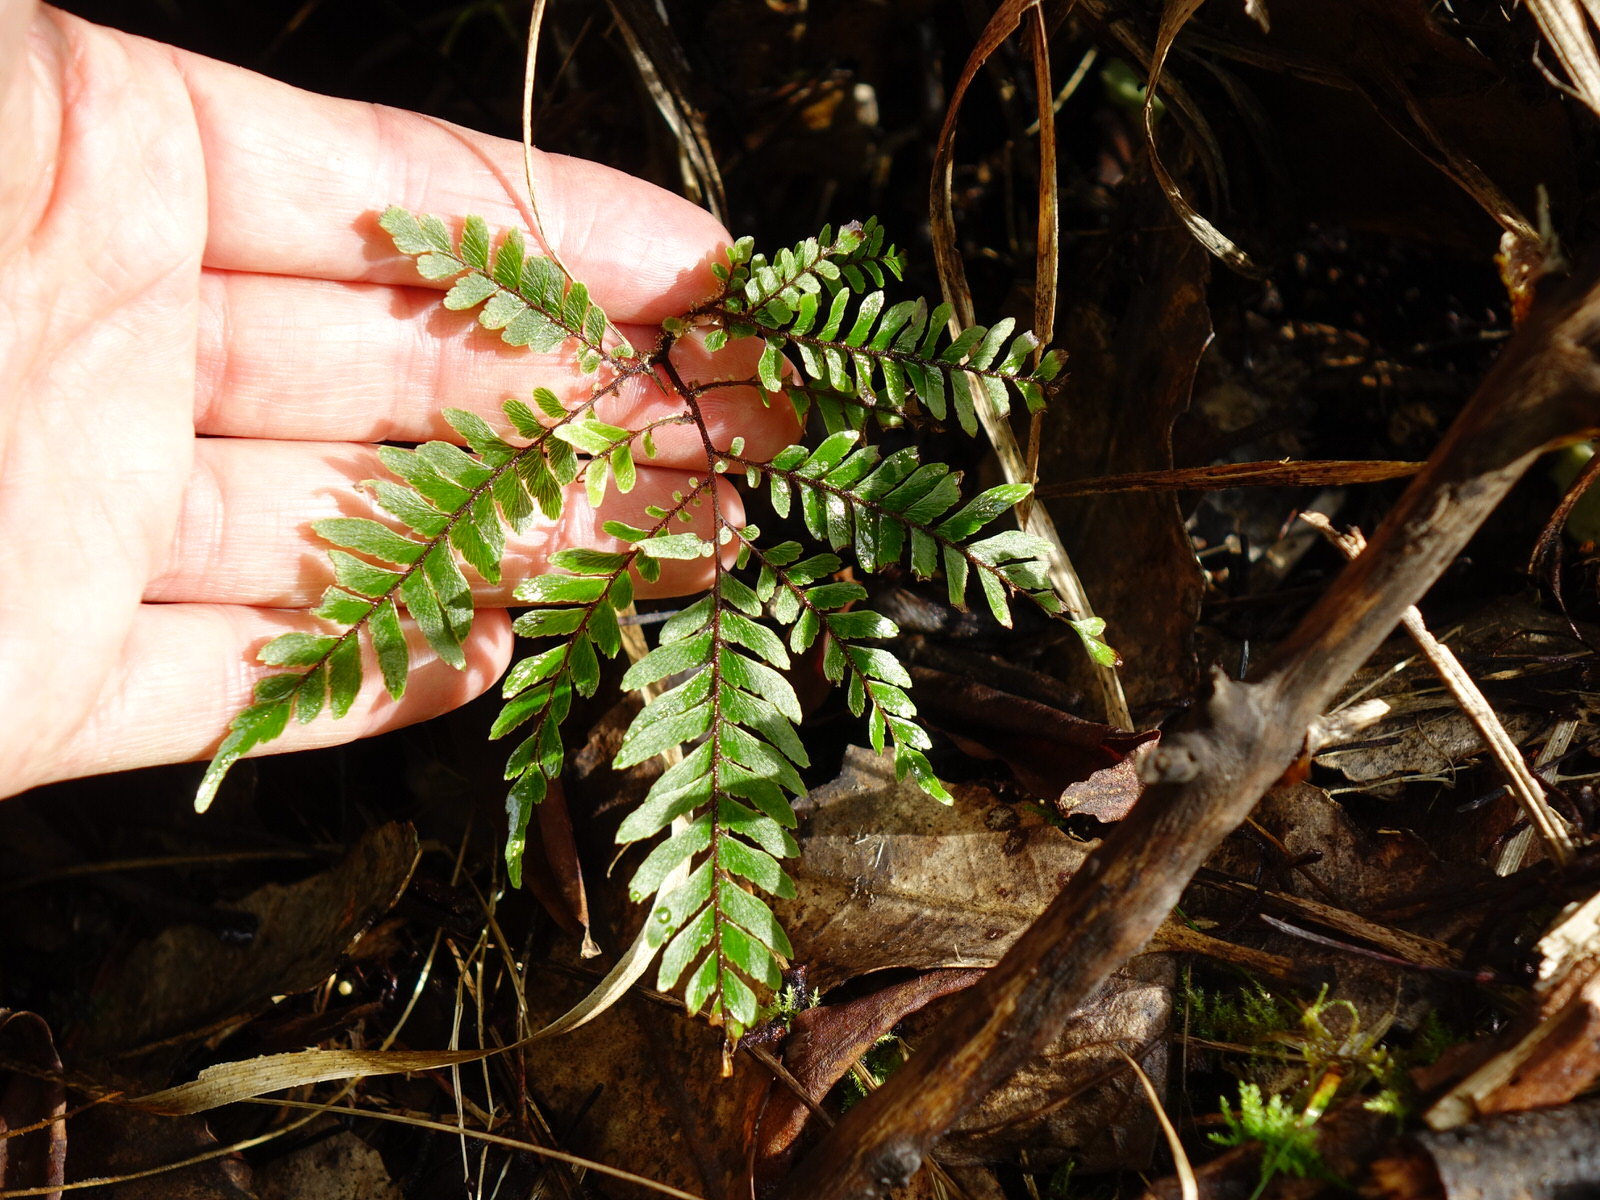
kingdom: Plantae
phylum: Tracheophyta
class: Polypodiopsida
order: Polypodiales
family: Pteridaceae
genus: Adiantum
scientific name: Adiantum fulvum
